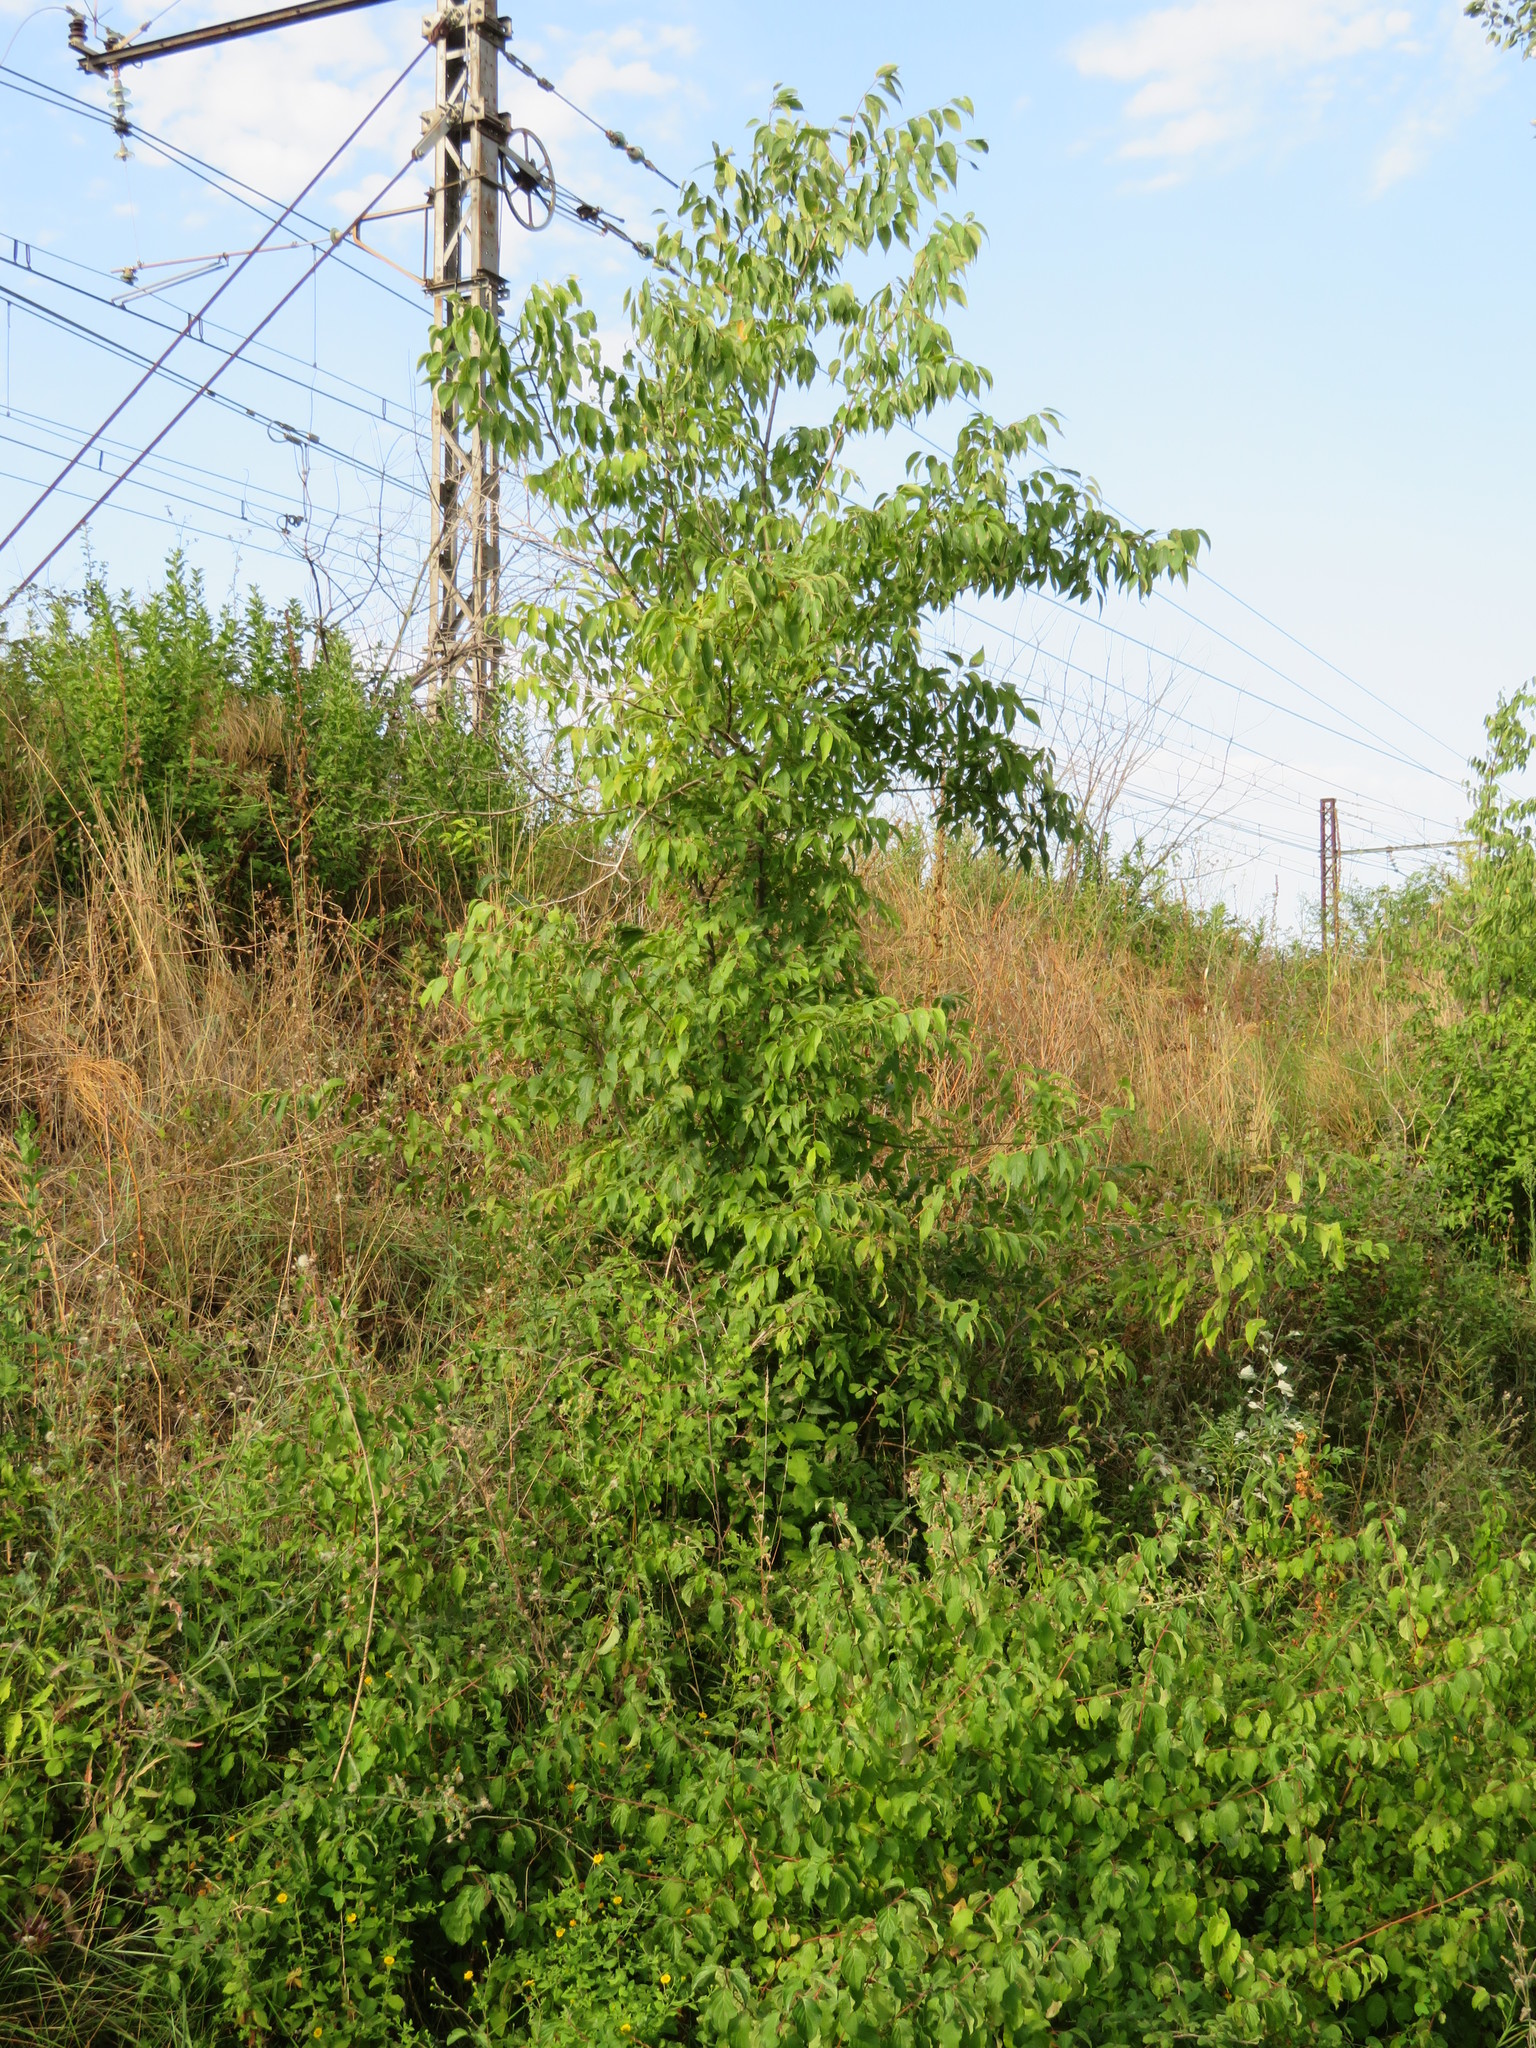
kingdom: Plantae
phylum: Tracheophyta
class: Magnoliopsida
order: Rosales
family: Cannabaceae
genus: Celtis
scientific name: Celtis australis
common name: European hackberry
